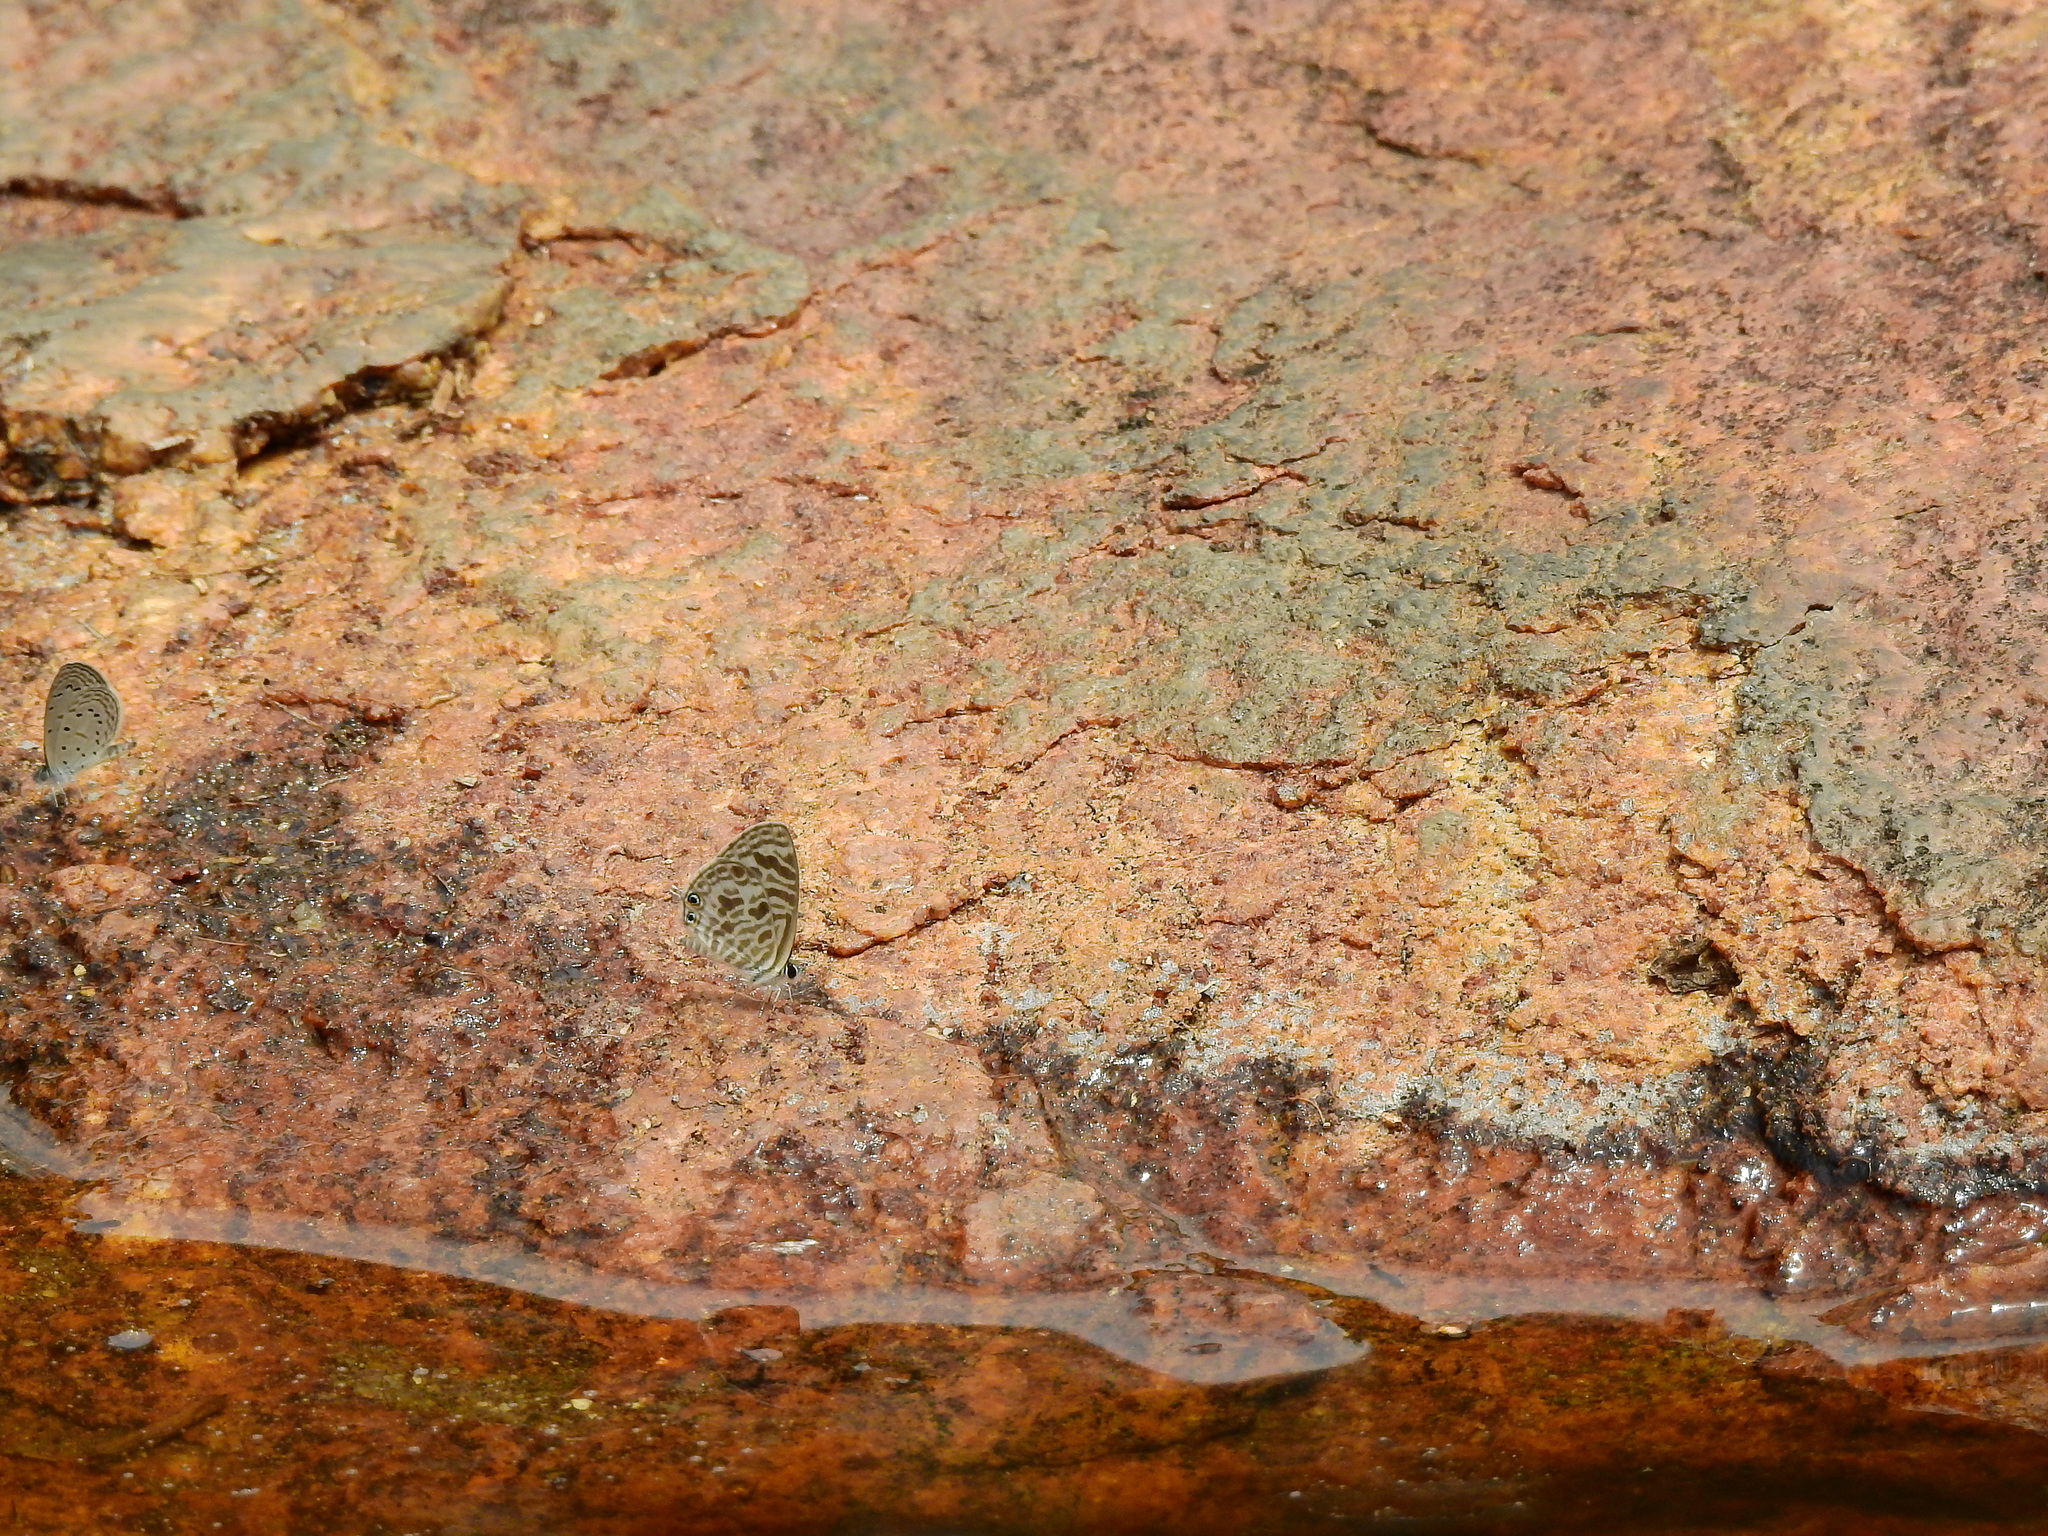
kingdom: Animalia
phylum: Arthropoda
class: Insecta
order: Lepidoptera
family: Lycaenidae
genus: Zizula
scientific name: Zizula hylax
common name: Gaika blue
